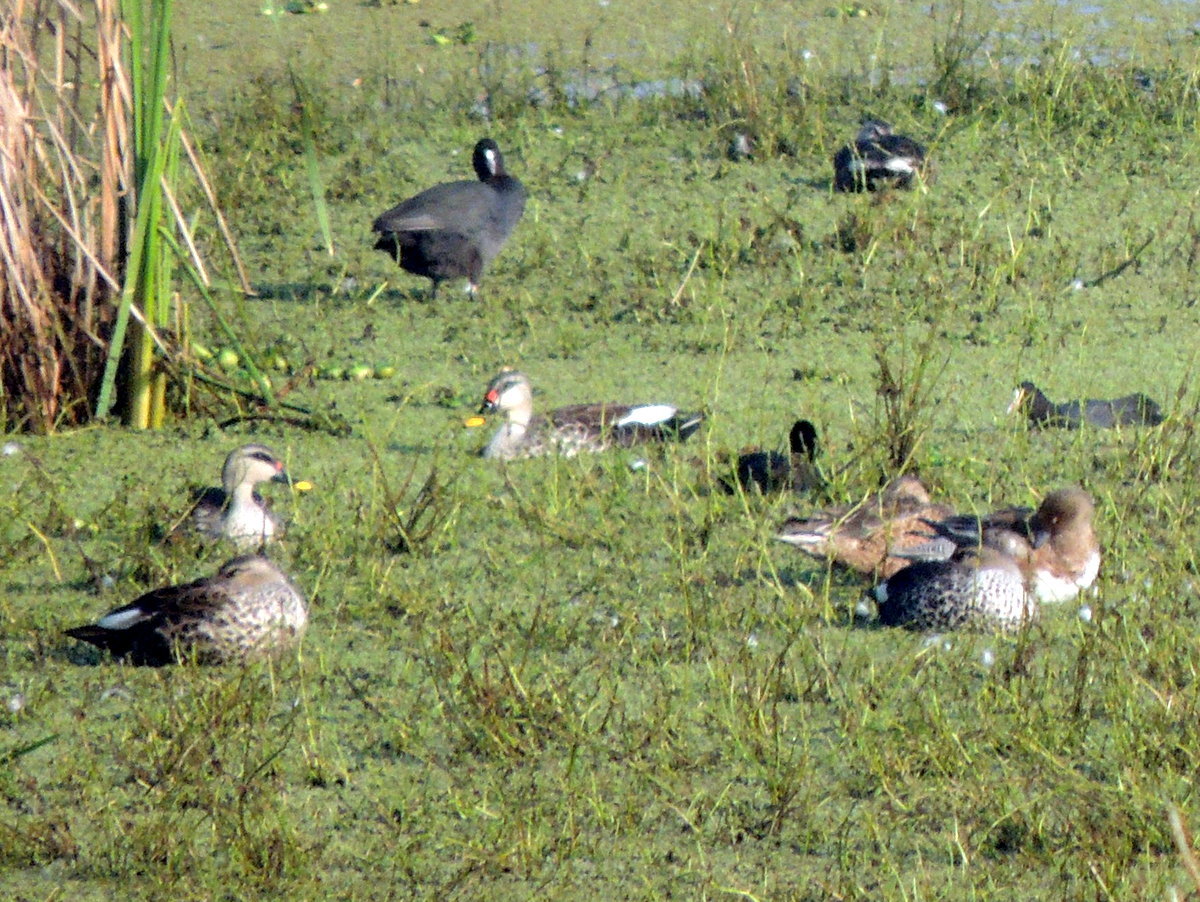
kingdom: Animalia
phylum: Chordata
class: Aves
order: Anseriformes
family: Anatidae
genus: Anas
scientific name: Anas poecilorhyncha
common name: Indian spot-billed duck
